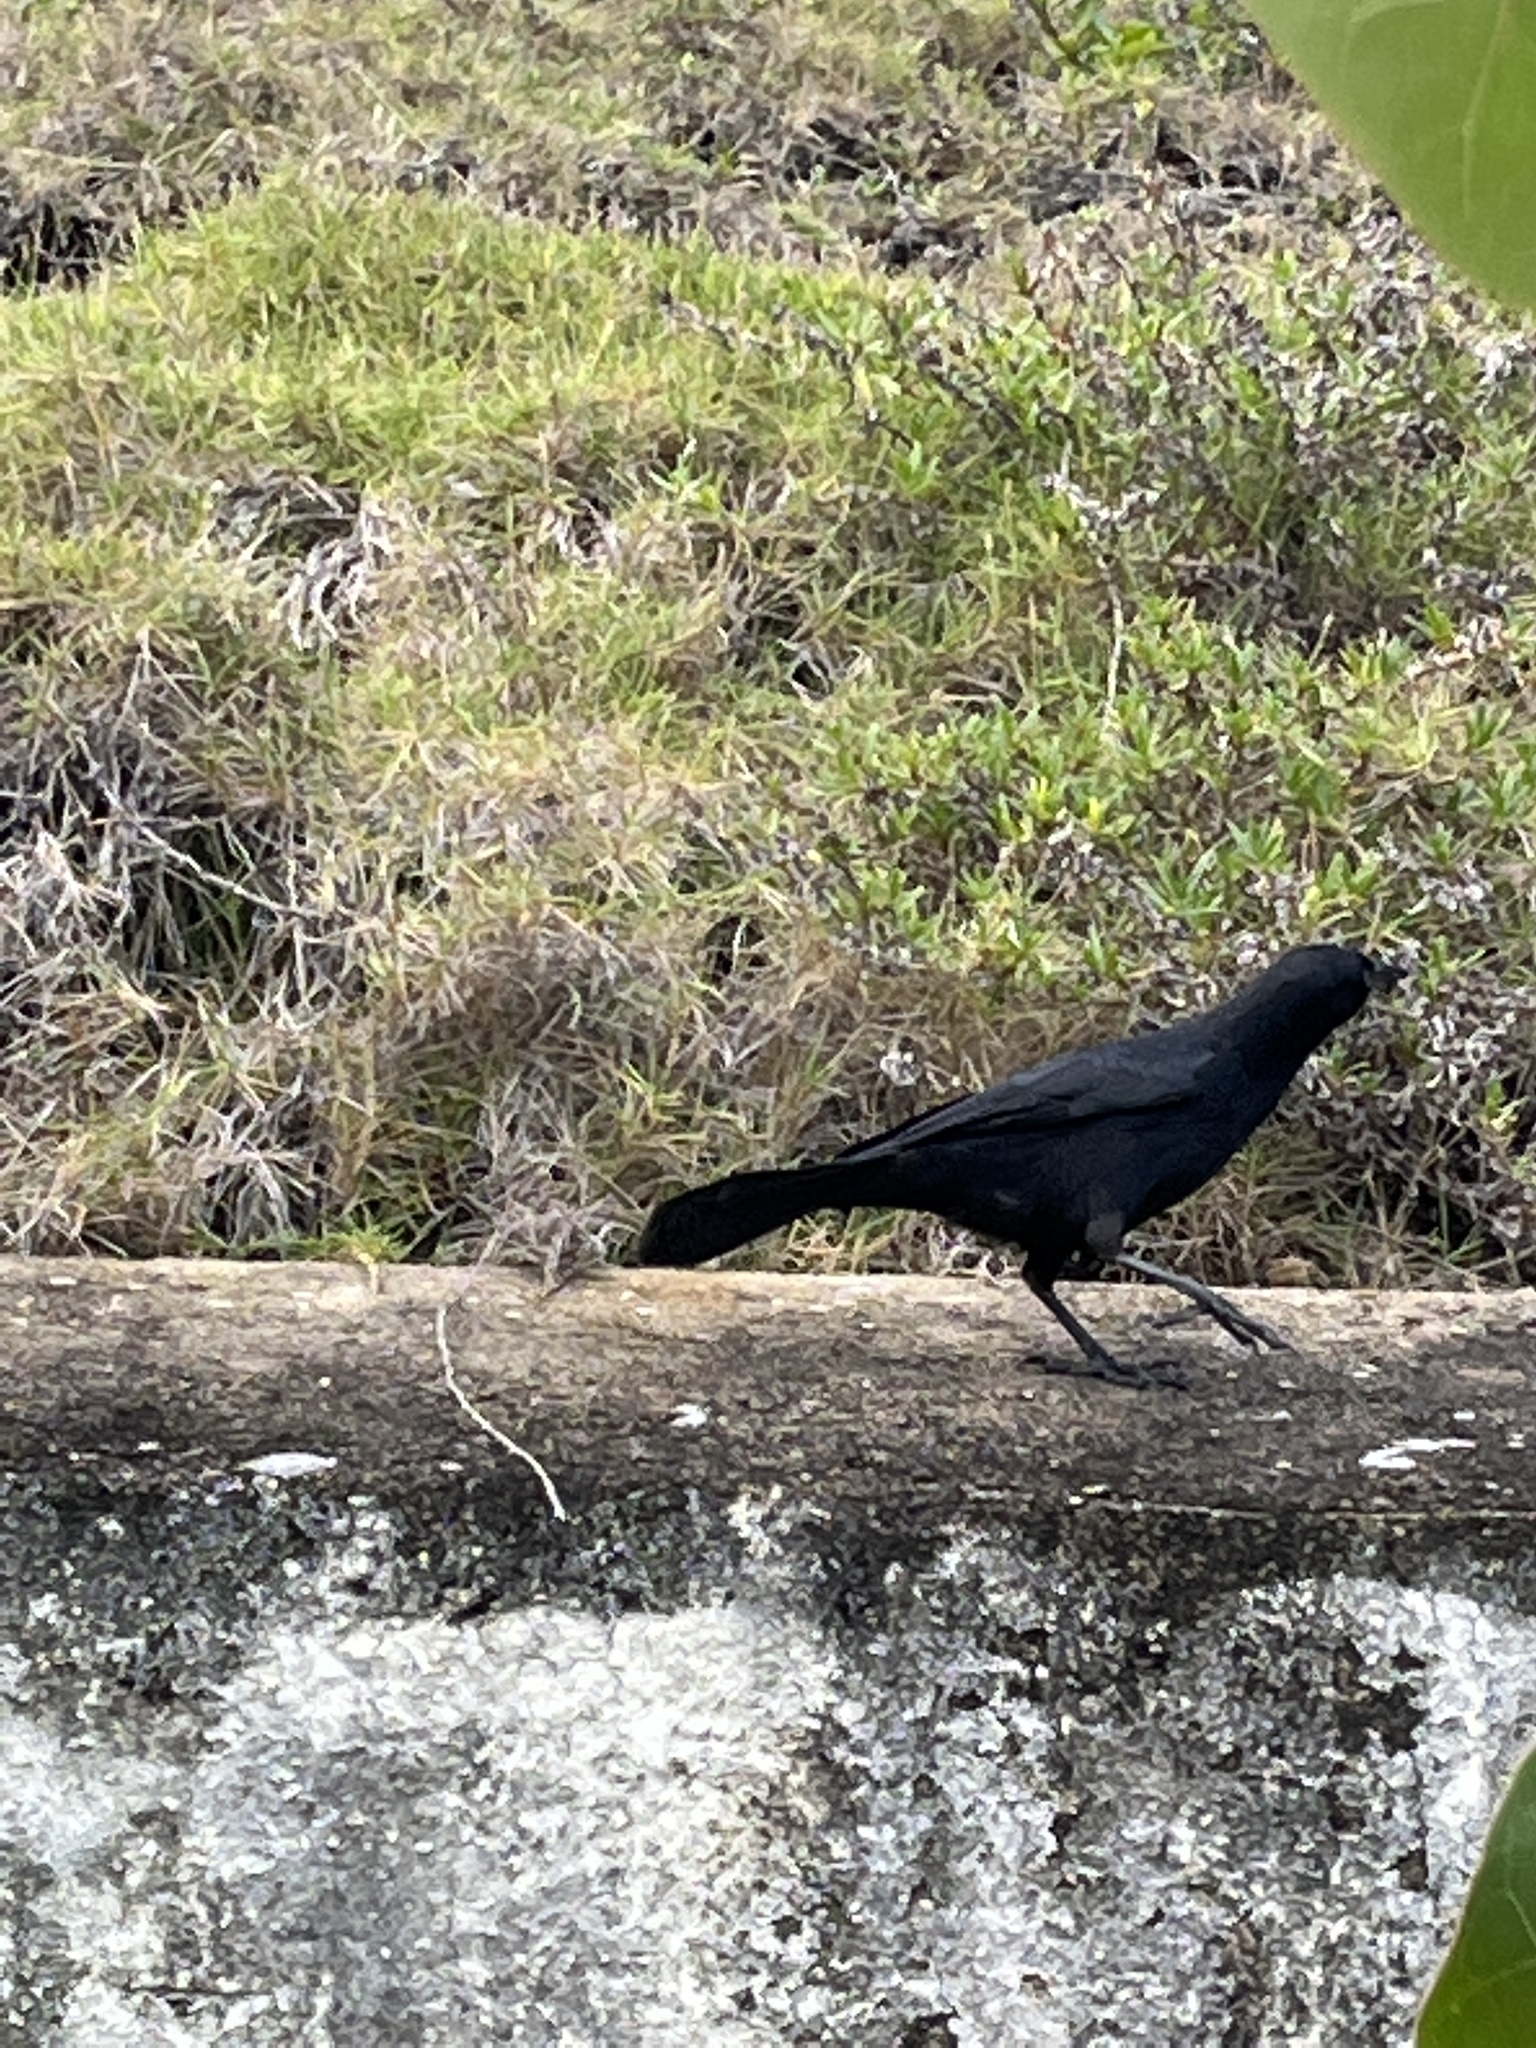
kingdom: Animalia
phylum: Chordata
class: Aves
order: Passeriformes
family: Icteridae
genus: Quiscalus
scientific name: Quiscalus niger
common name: Greater antillean grackle
